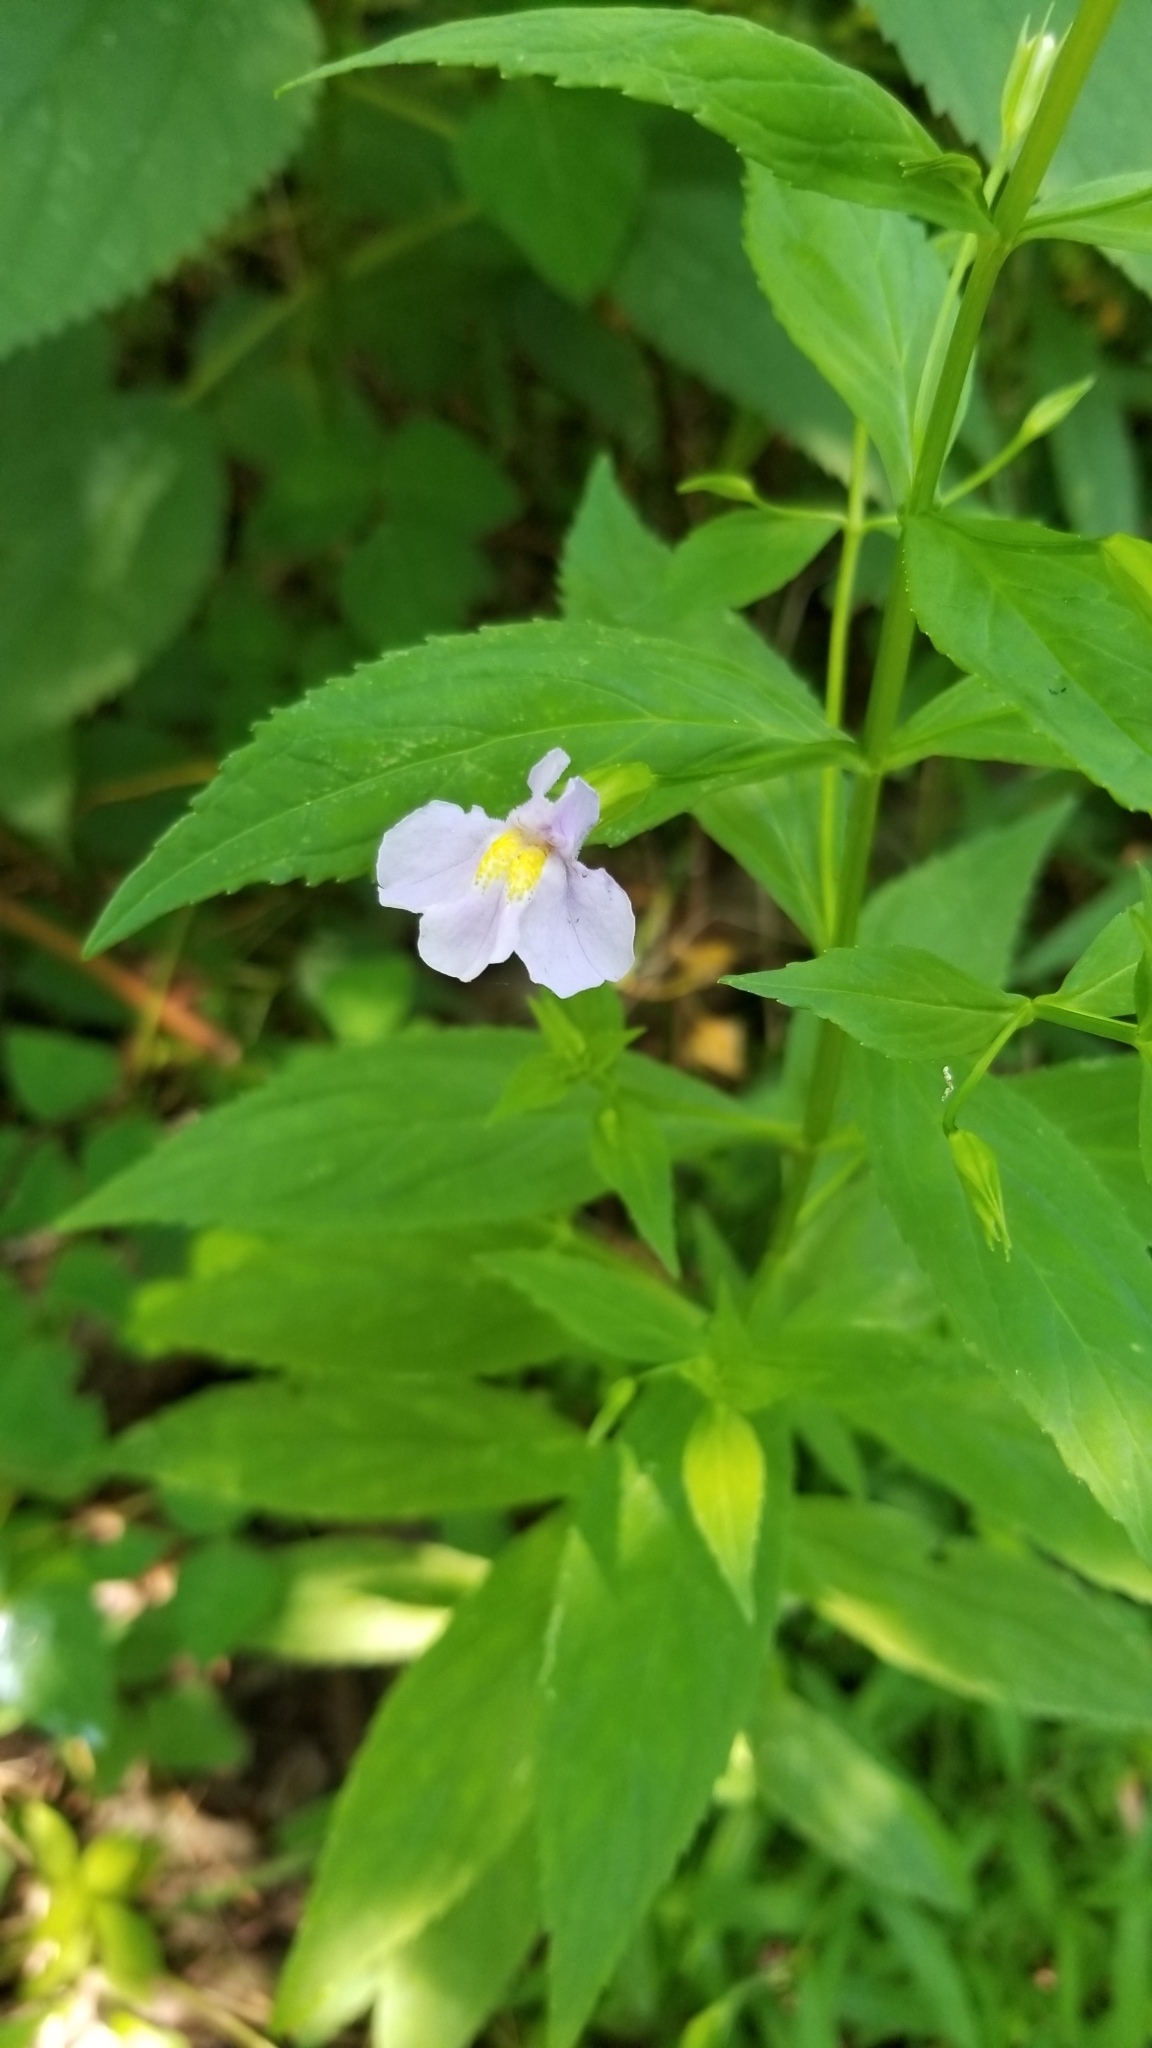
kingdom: Plantae
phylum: Tracheophyta
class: Magnoliopsida
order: Lamiales
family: Phrymaceae
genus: Mimulus
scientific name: Mimulus ringens
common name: Allegheny monkeyflower
